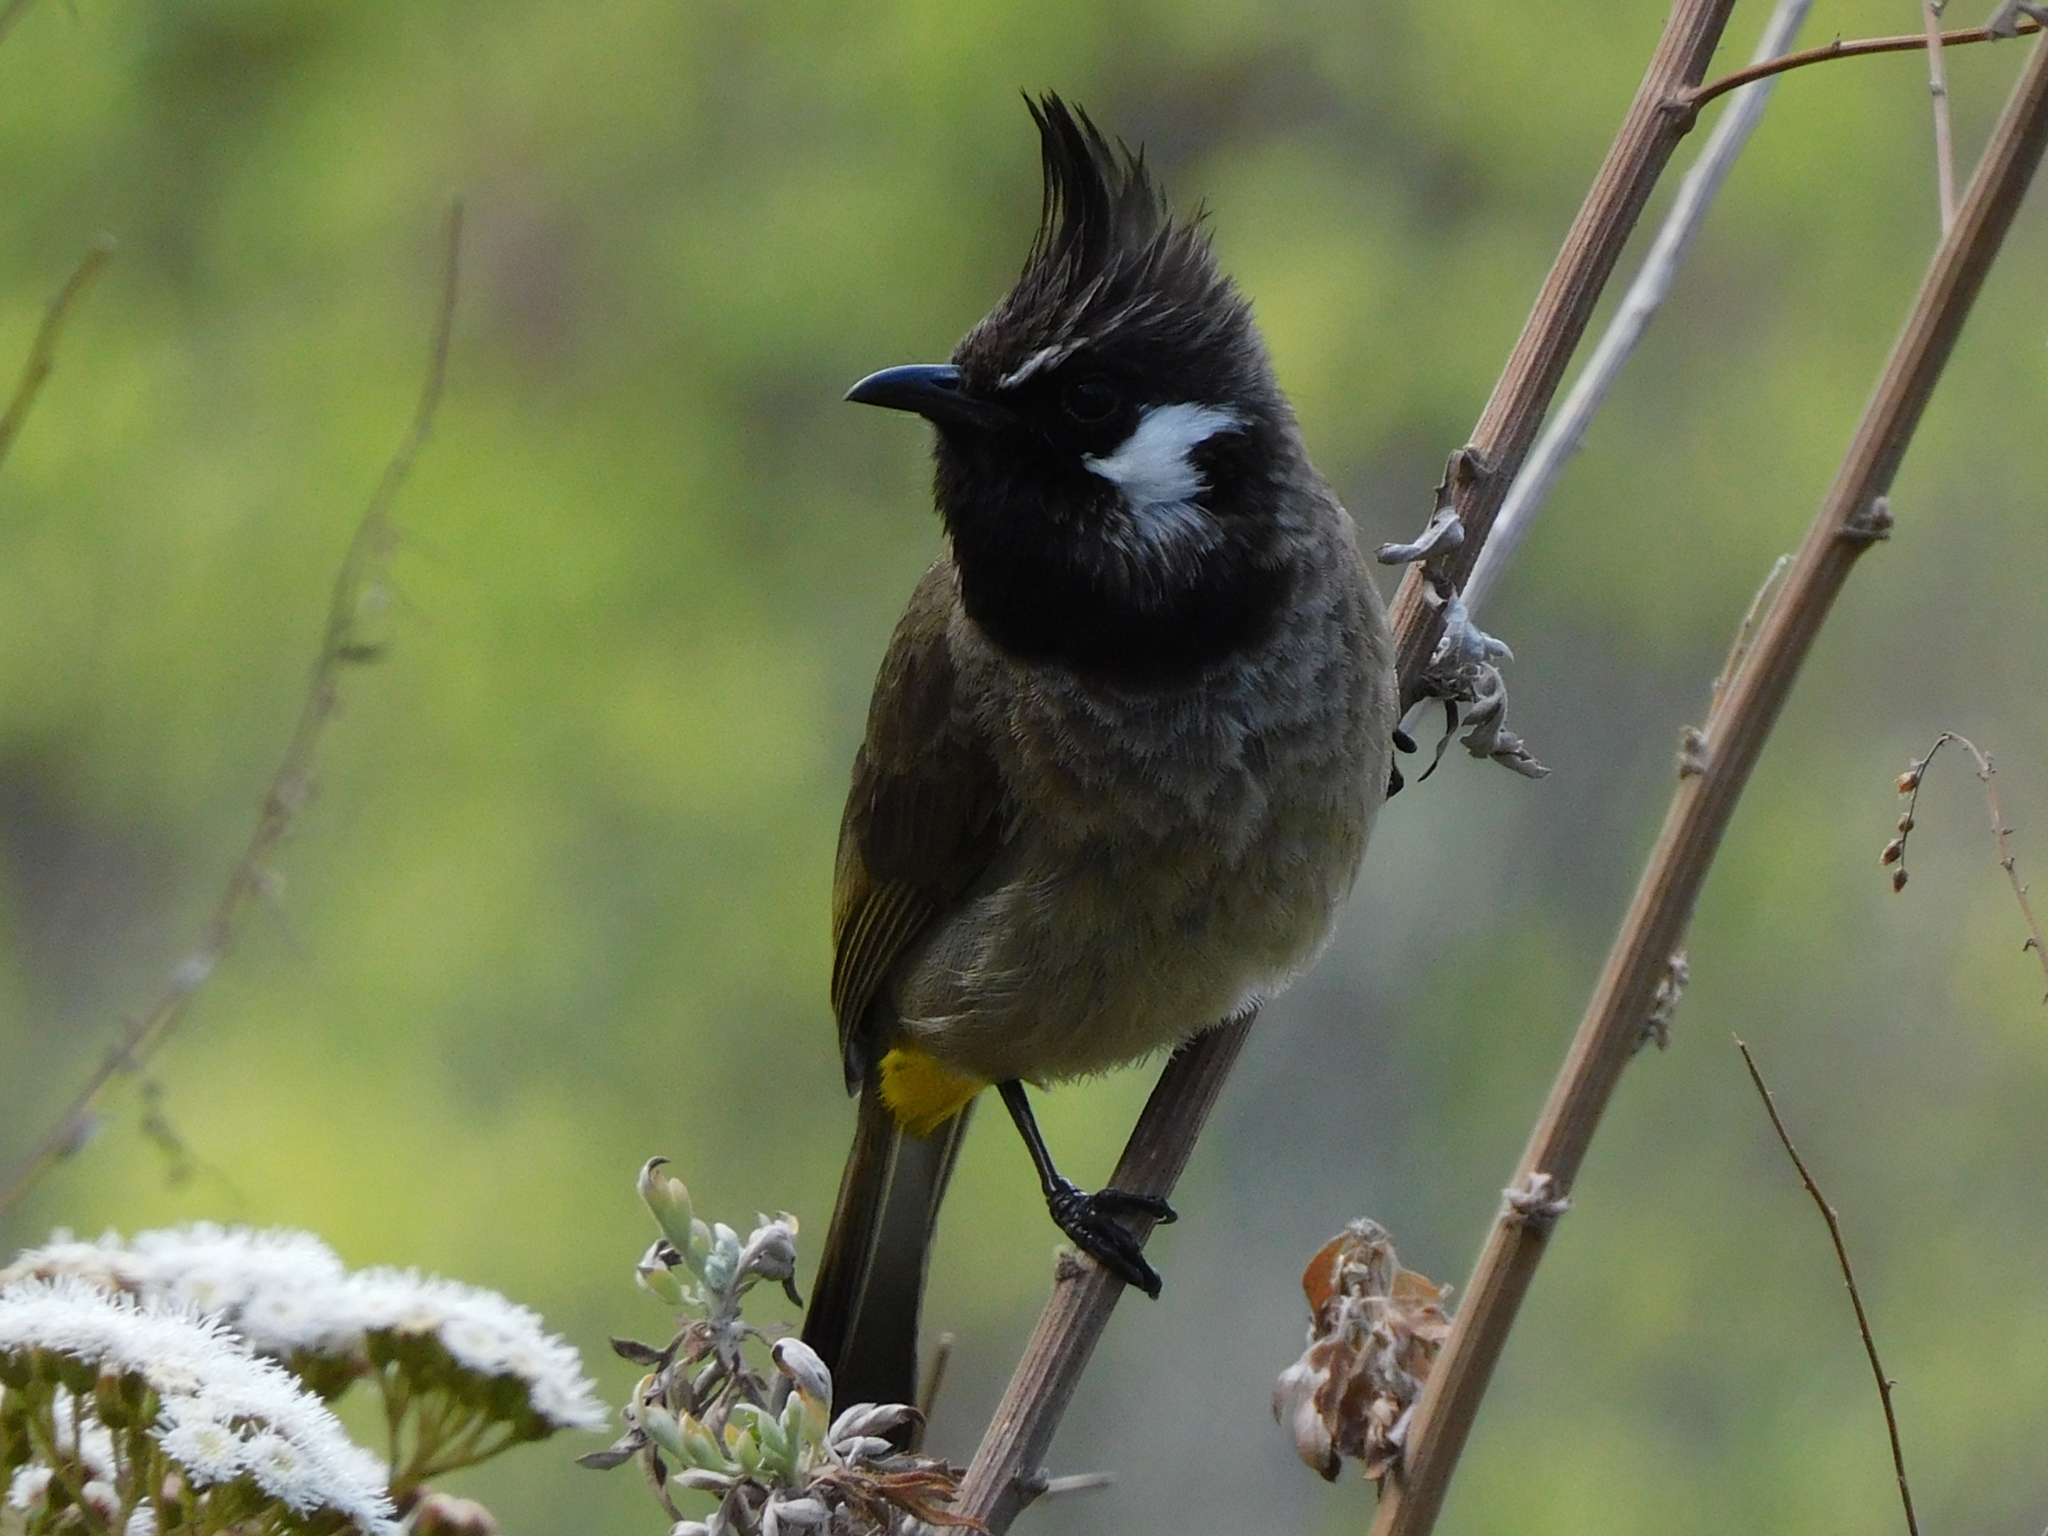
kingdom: Animalia
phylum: Chordata
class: Aves
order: Passeriformes
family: Pycnonotidae
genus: Pycnonotus
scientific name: Pycnonotus leucogenys
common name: Himalayan bulbul
